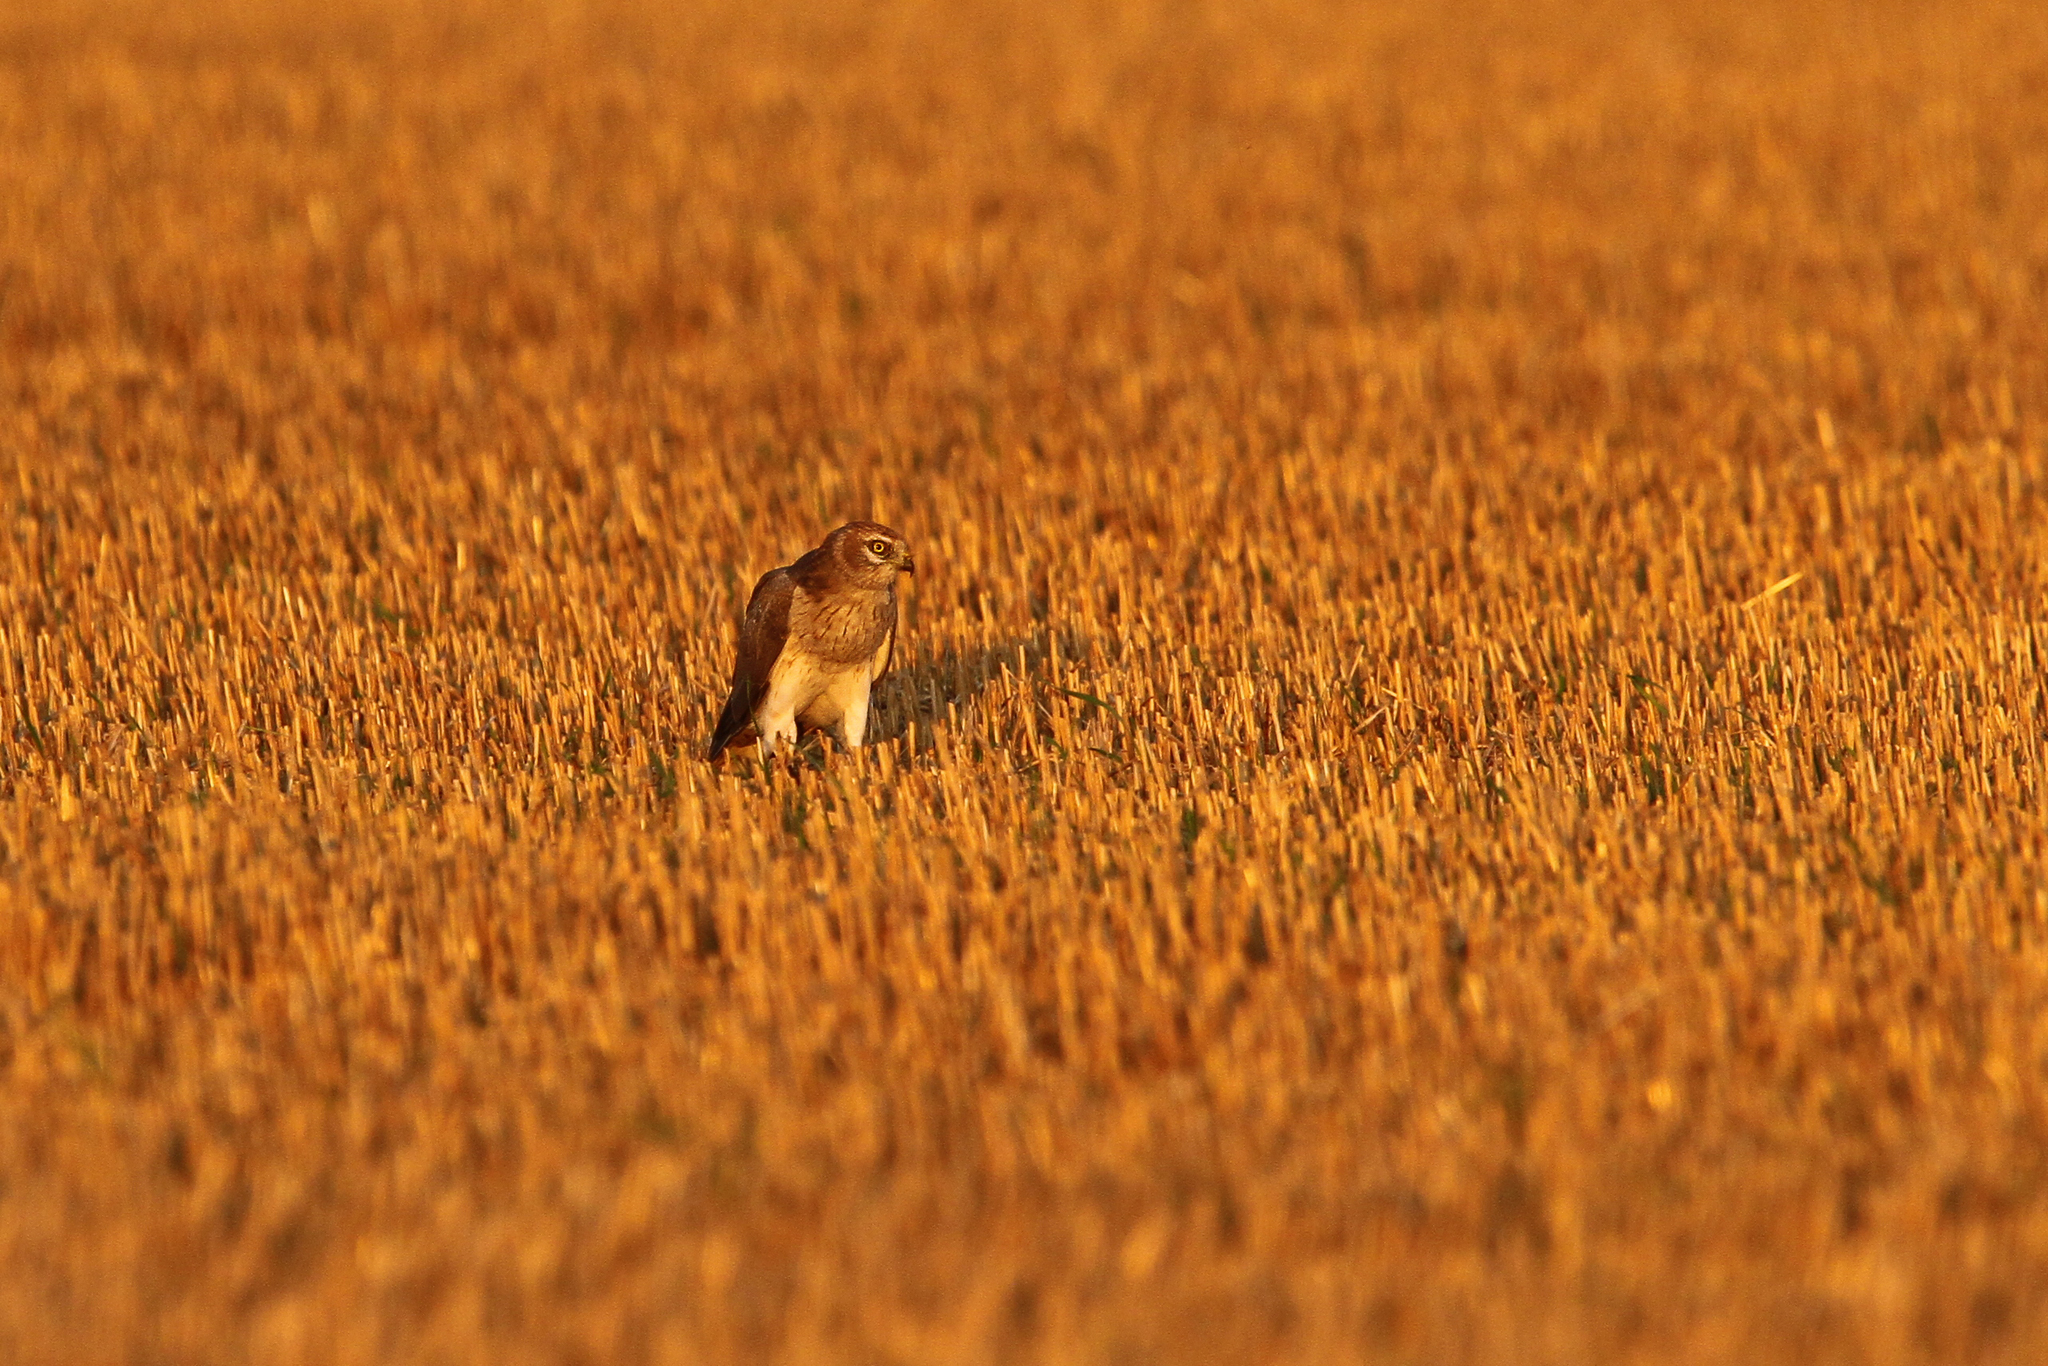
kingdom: Animalia
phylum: Chordata
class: Aves
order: Accipitriformes
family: Accipitridae
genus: Circus
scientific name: Circus macrourus
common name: Pallid harrier
